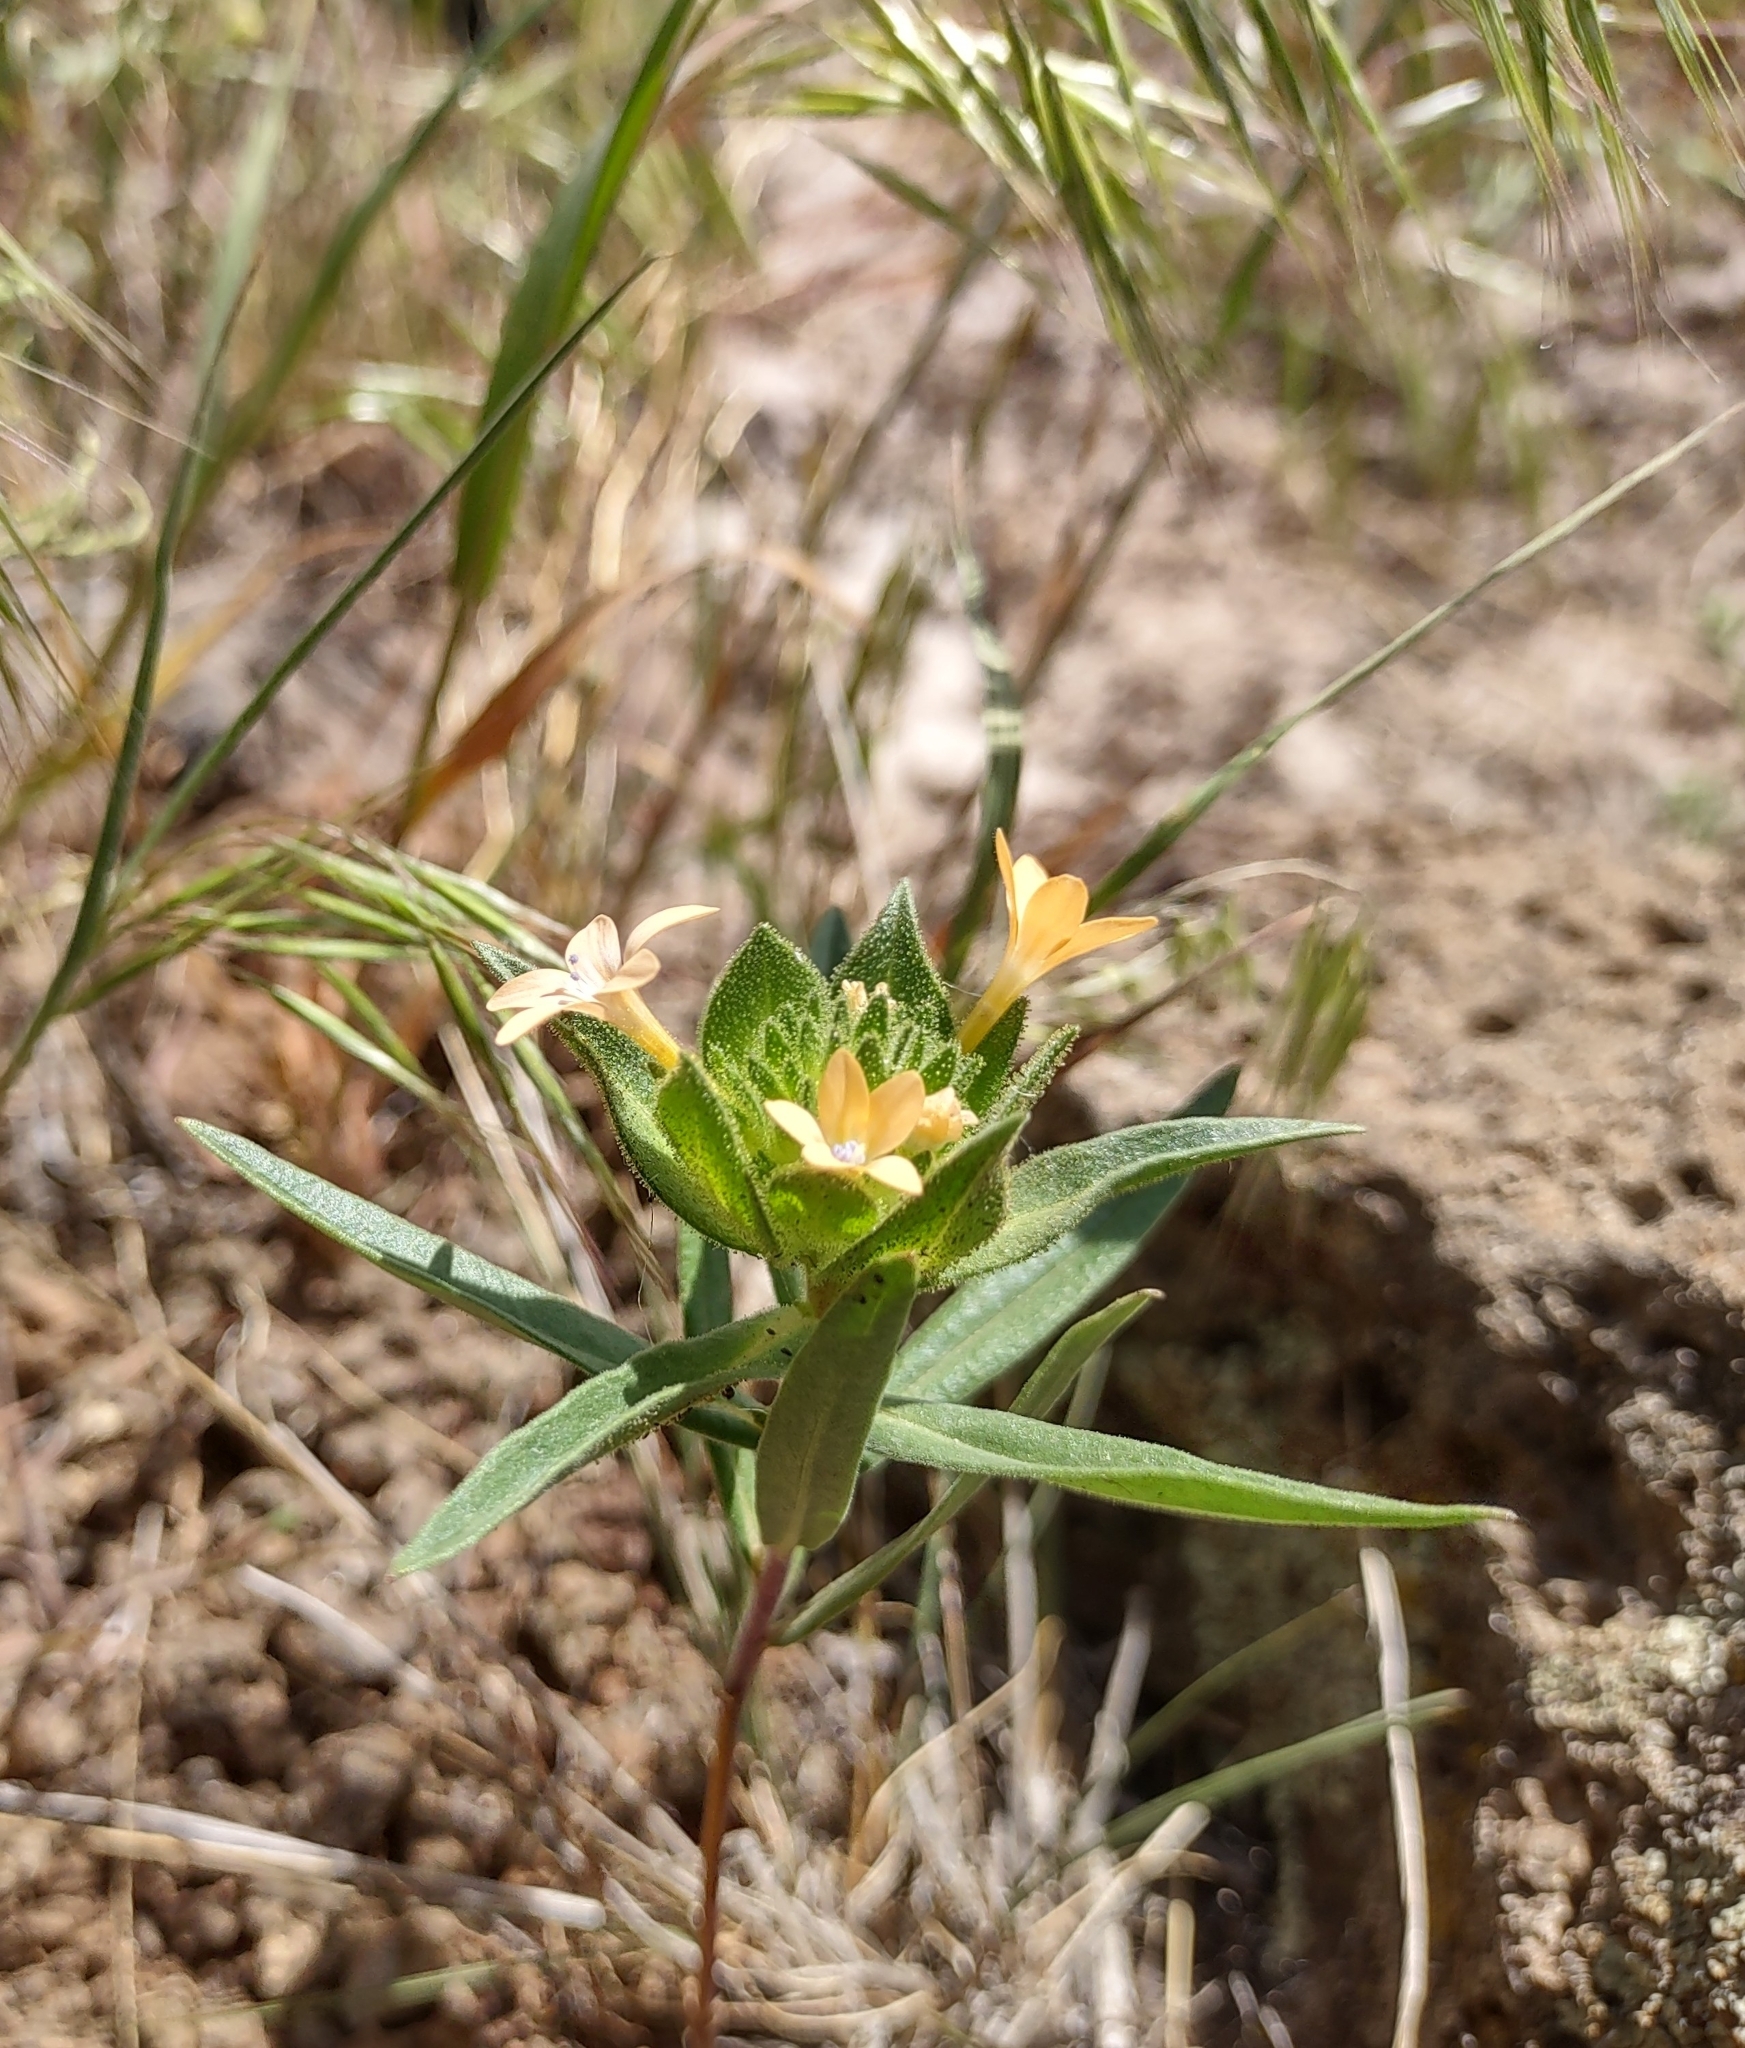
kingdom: Plantae
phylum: Tracheophyta
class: Magnoliopsida
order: Ericales
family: Polemoniaceae
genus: Collomia
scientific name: Collomia grandiflora
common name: California strawflower
